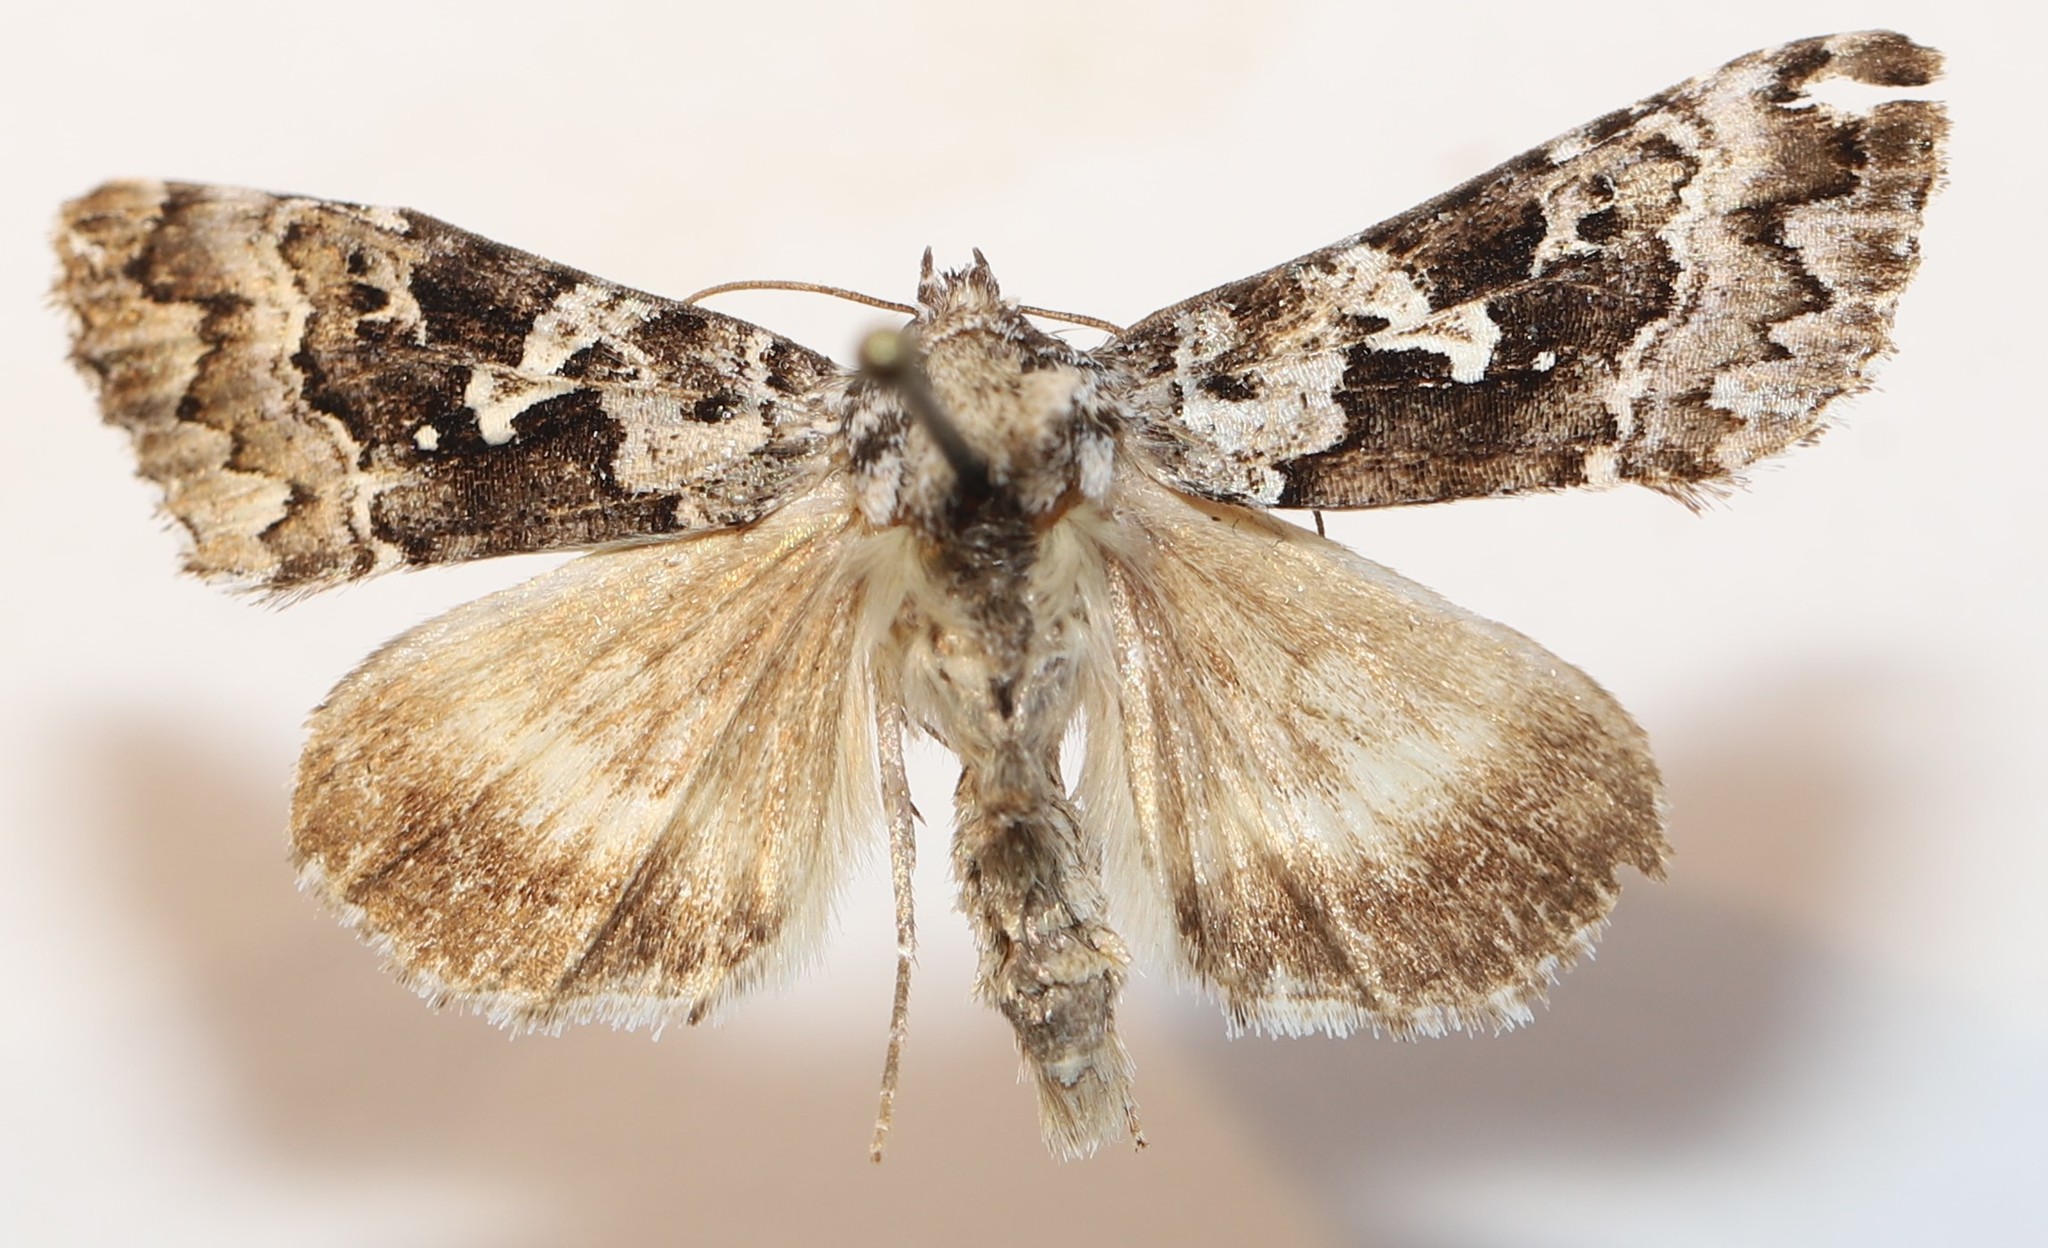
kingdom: Animalia
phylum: Arthropoda
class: Insecta
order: Lepidoptera
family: Noctuidae
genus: Syngrapha
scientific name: Syngrapha rectangula
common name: Angulated cutworm
